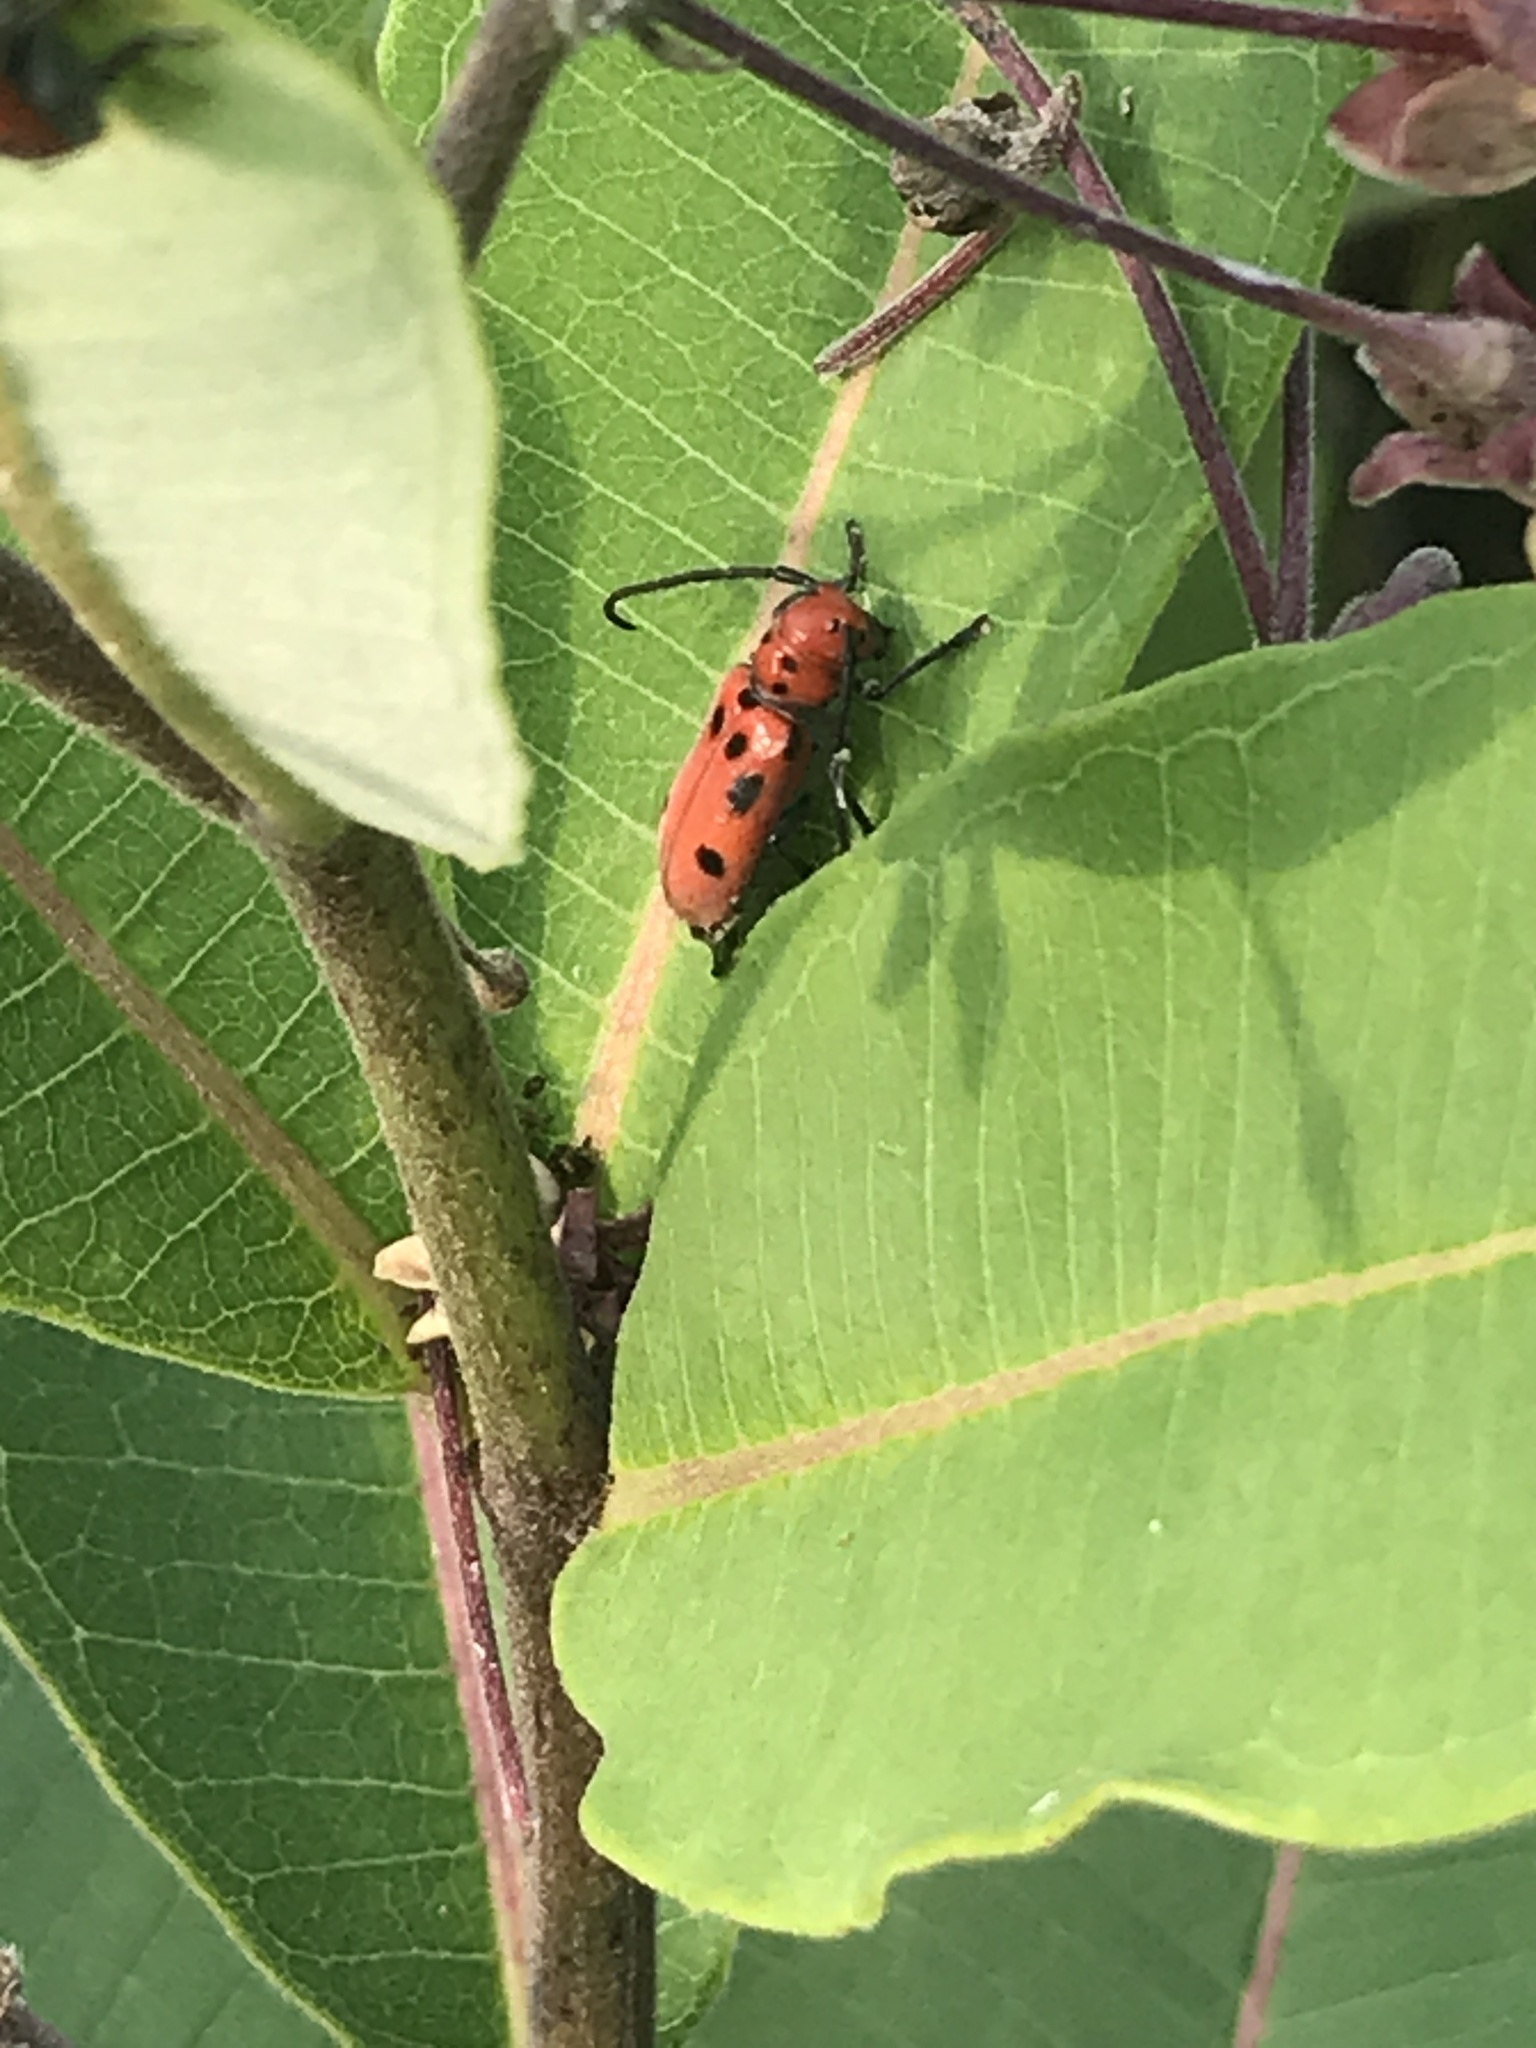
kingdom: Animalia
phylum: Arthropoda
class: Insecta
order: Coleoptera
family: Cerambycidae
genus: Tetraopes
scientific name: Tetraopes tetrophthalmus
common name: Red milkweed beetle
